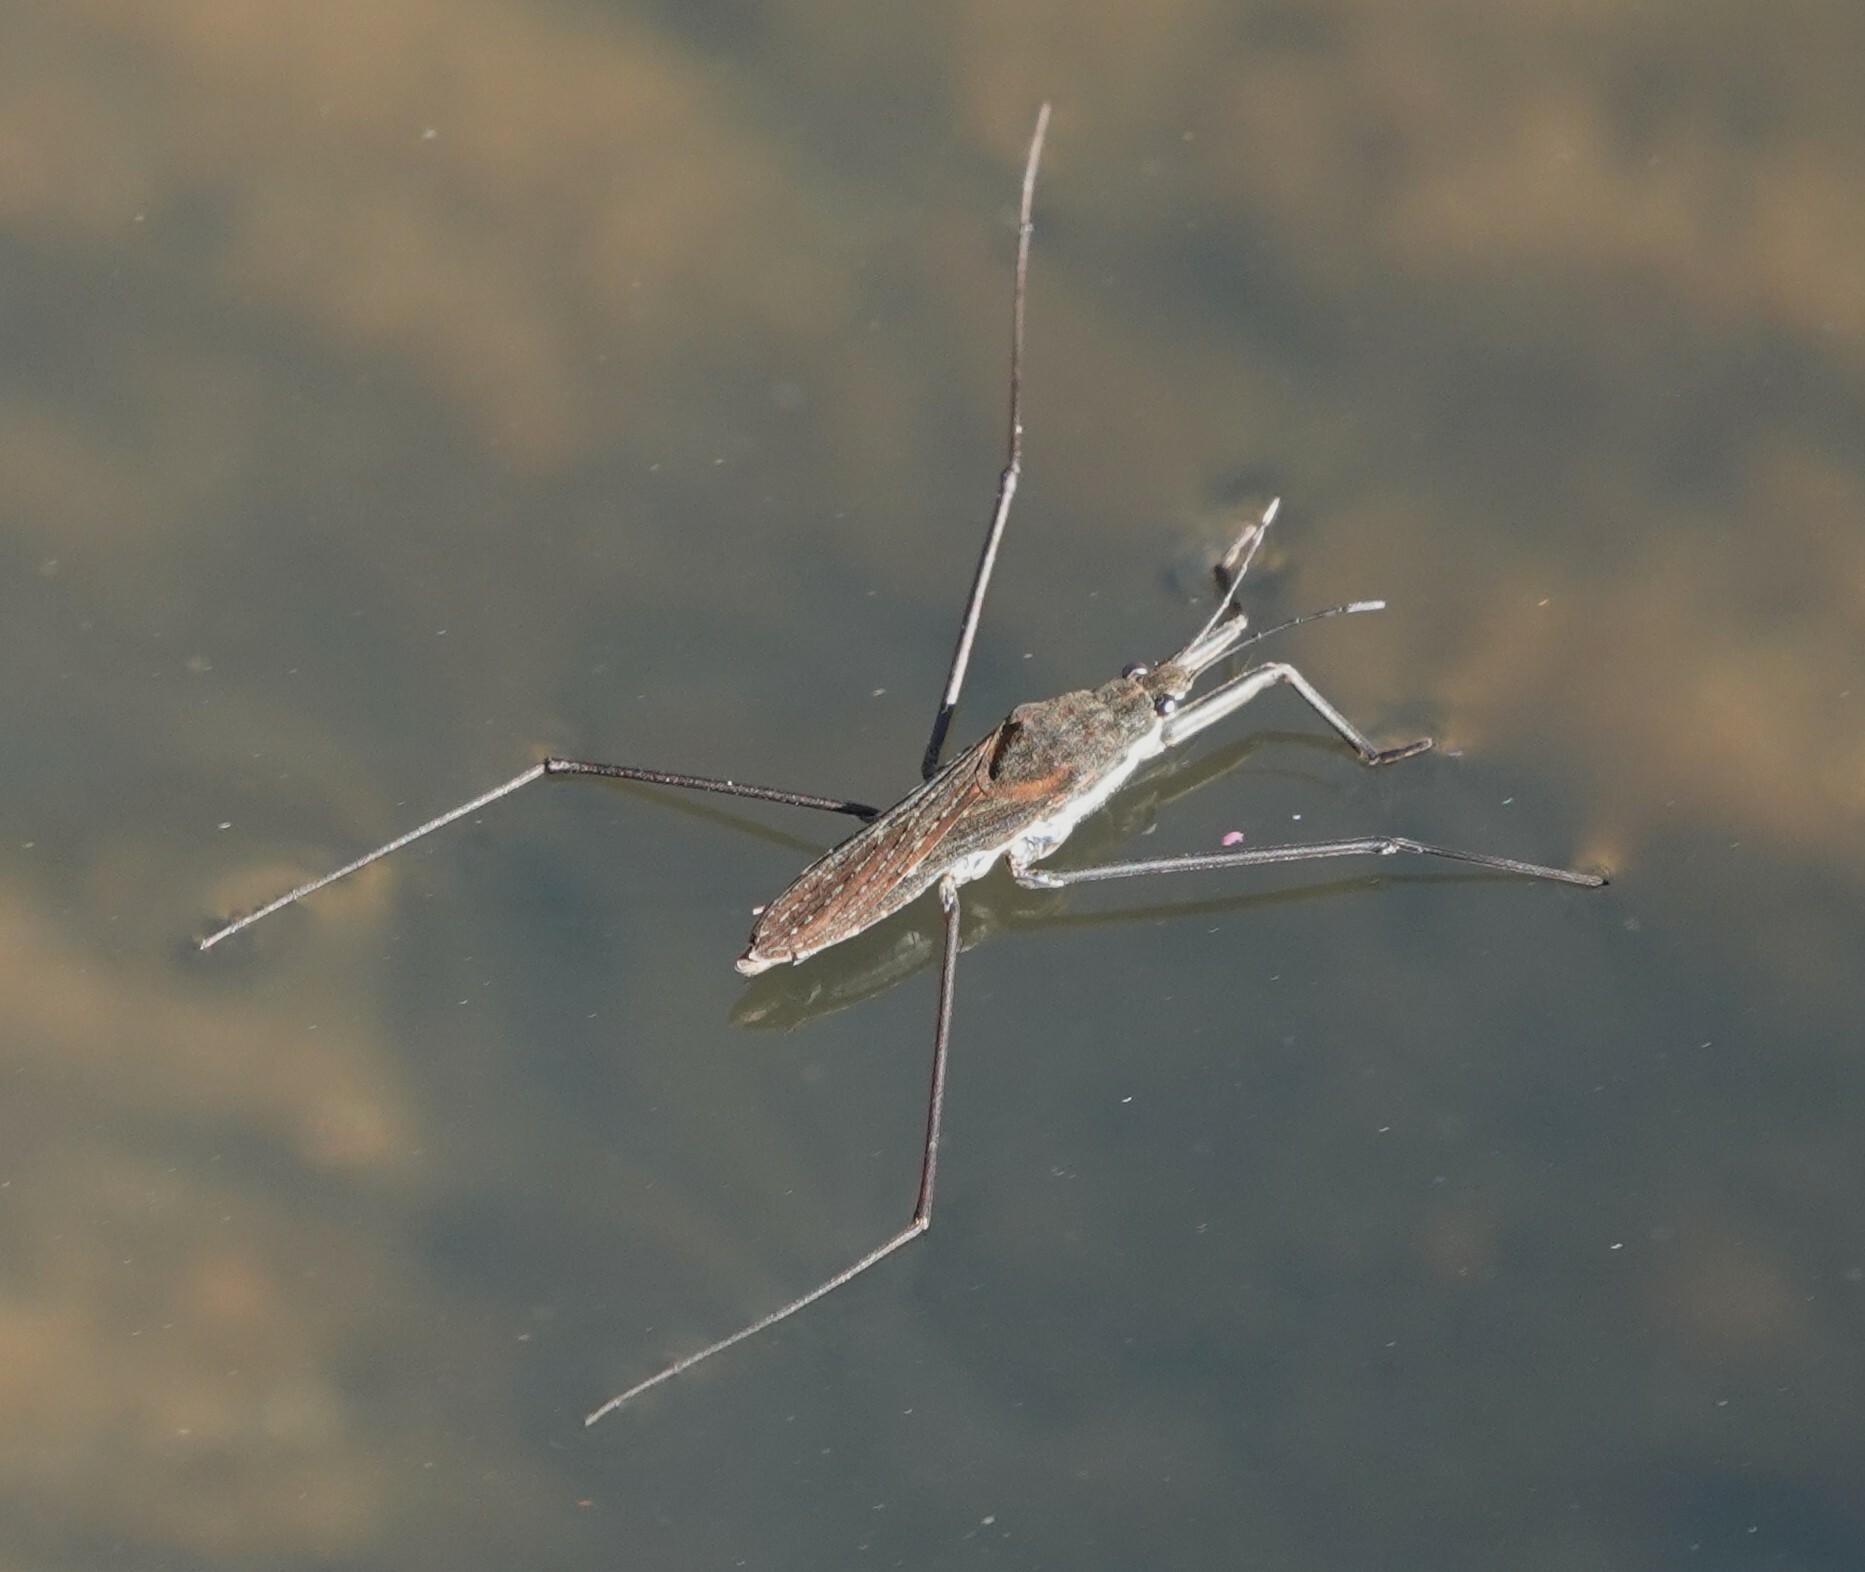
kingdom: Animalia
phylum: Arthropoda
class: Insecta
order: Hemiptera
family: Gerridae
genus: Aquarius
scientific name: Aquarius remigis
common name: Common water strider
